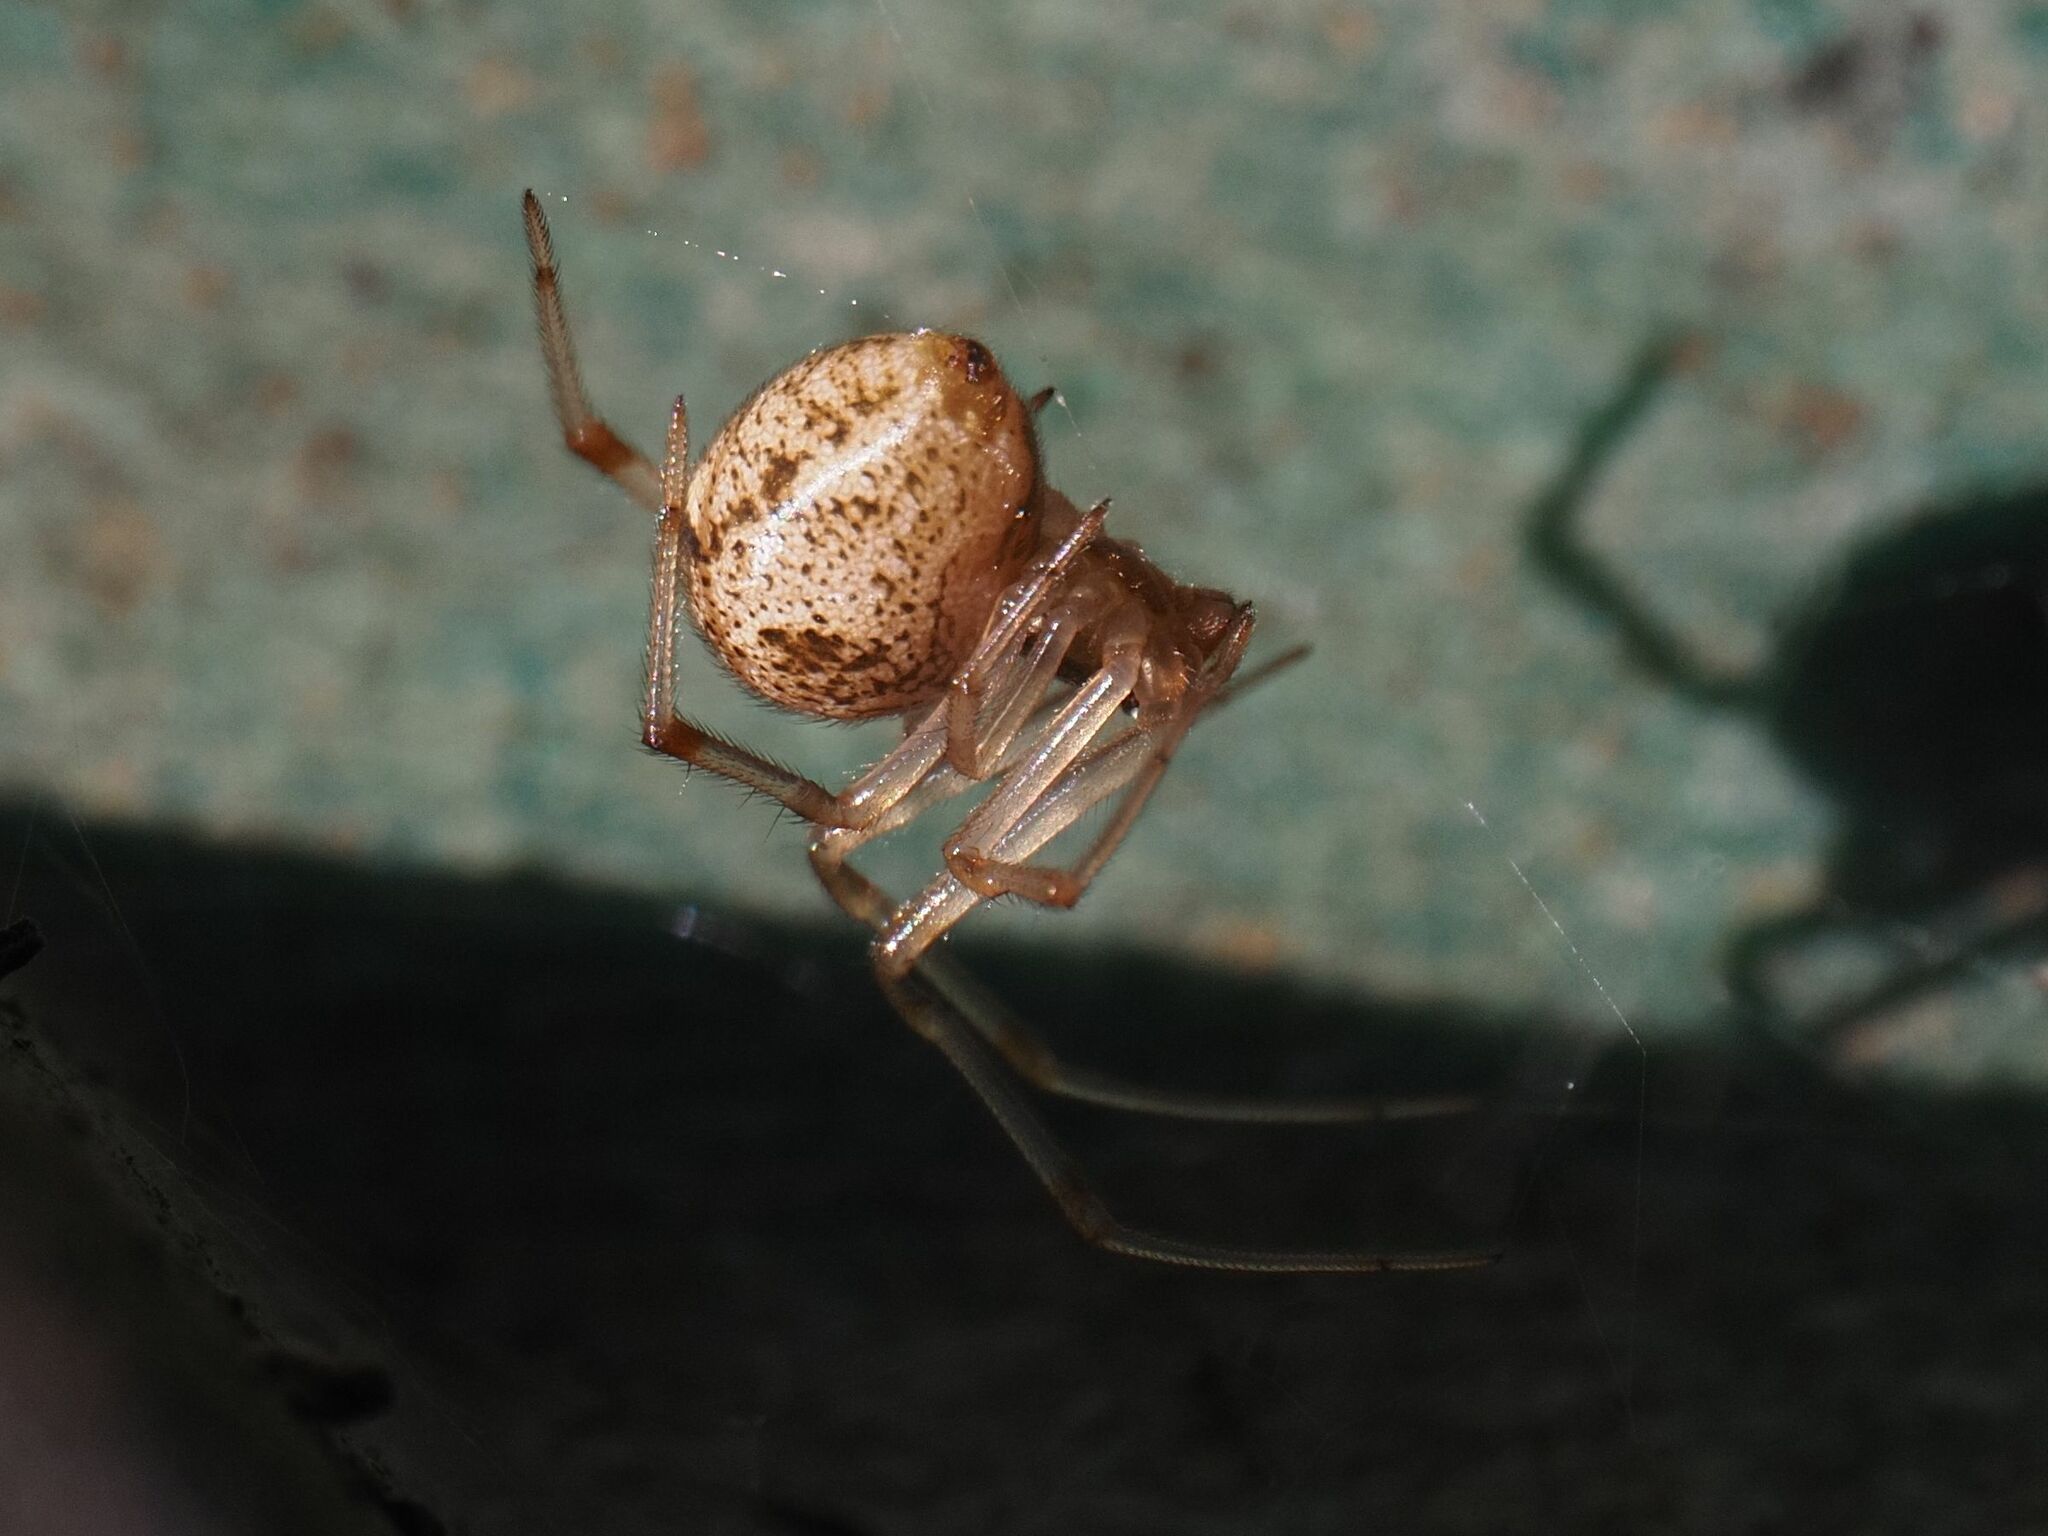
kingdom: Animalia
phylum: Arthropoda
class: Arachnida
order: Araneae
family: Theridiidae
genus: Parasteatoda
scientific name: Parasteatoda tepidariorum
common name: Common house spider
